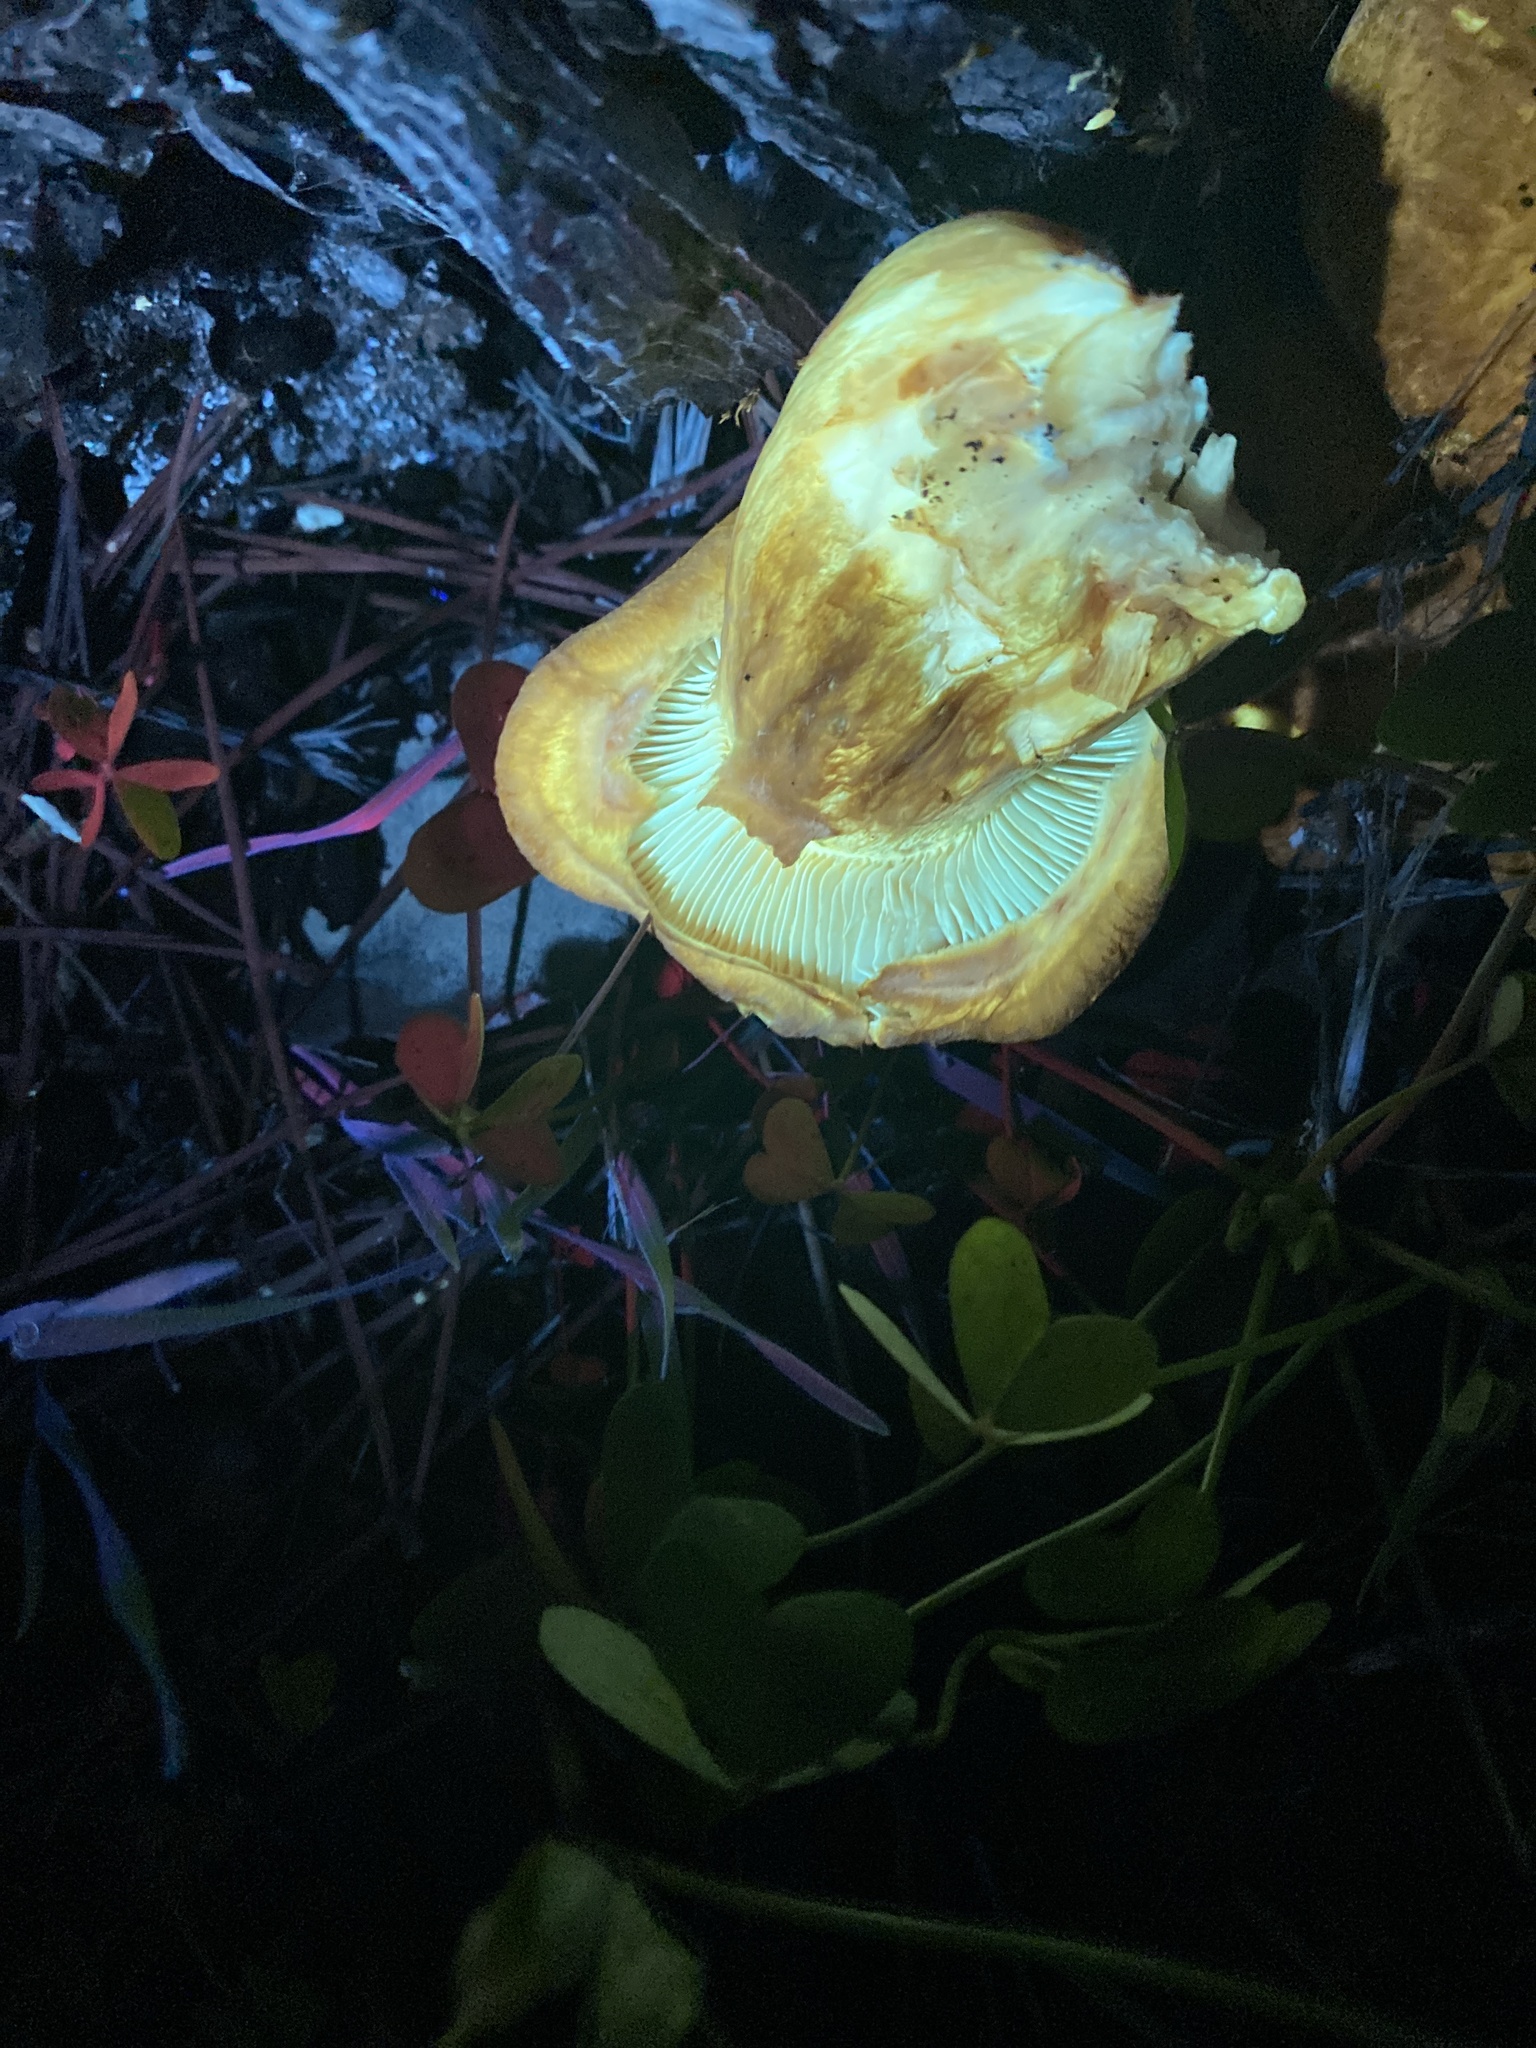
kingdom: Fungi
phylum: Basidiomycota
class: Agaricomycetes
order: Agaricales
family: Hymenogastraceae
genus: Gymnopilus
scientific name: Gymnopilus ventricosus
